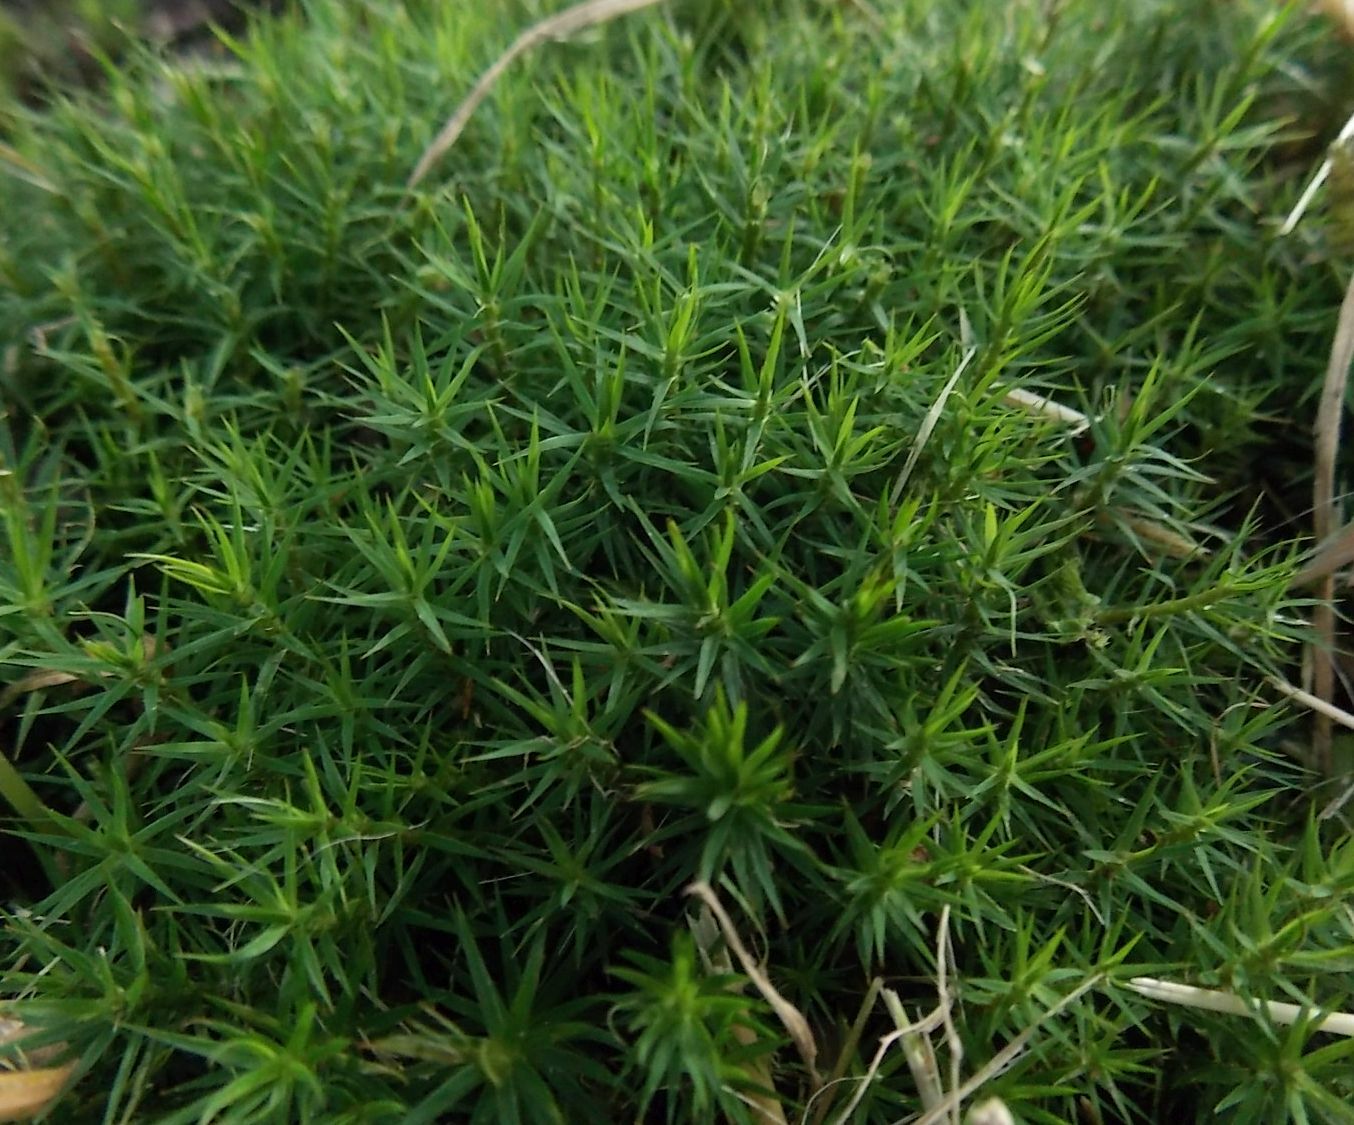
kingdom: Plantae
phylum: Bryophyta
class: Polytrichopsida
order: Polytrichales
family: Polytrichaceae
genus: Polytrichum
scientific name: Polytrichum formosum
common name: Bank haircap moss
